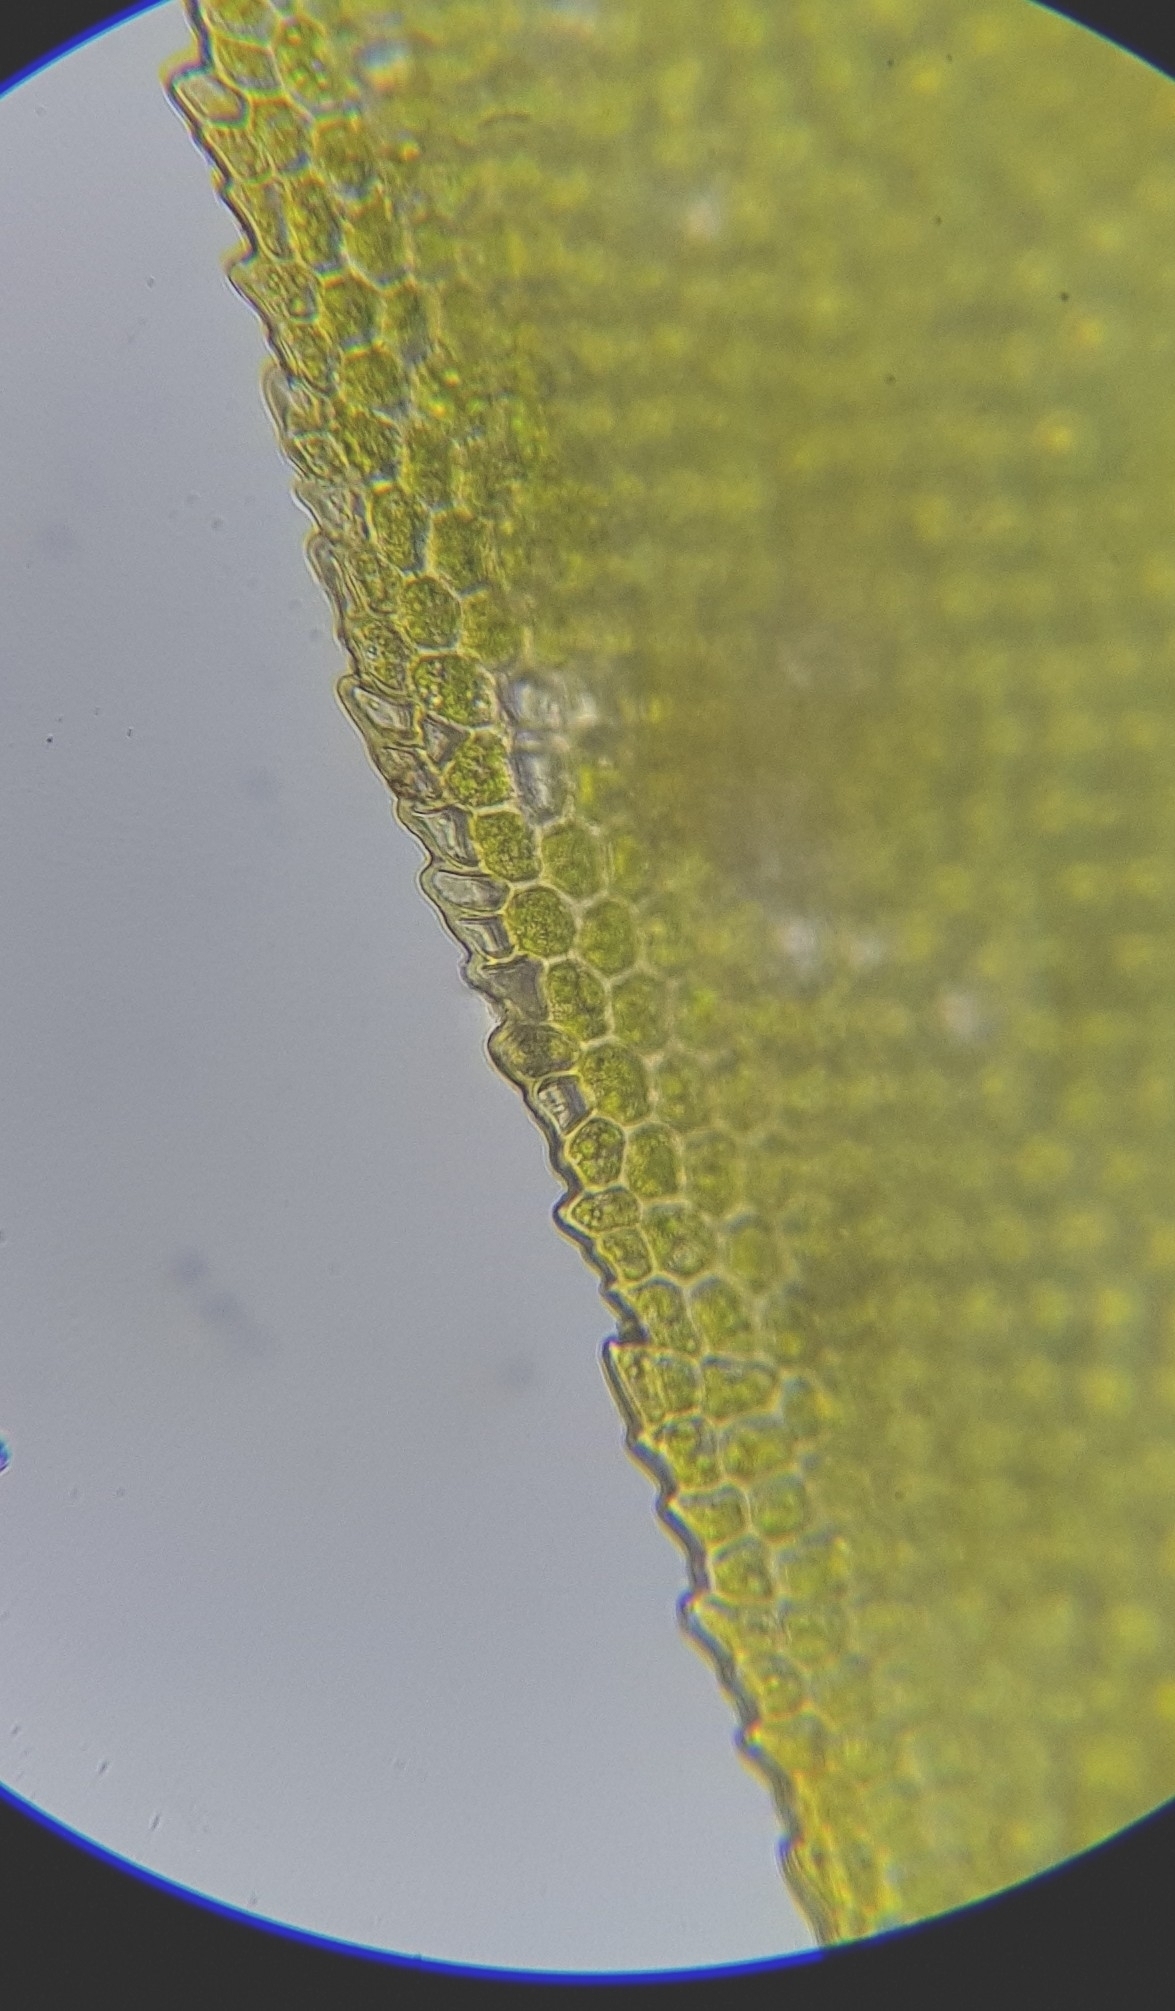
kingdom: Plantae
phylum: Bryophyta
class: Bryopsida
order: Dicranales
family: Fissidentaceae
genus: Fissidens
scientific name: Fissidens dubius
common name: Rock pocket moss
